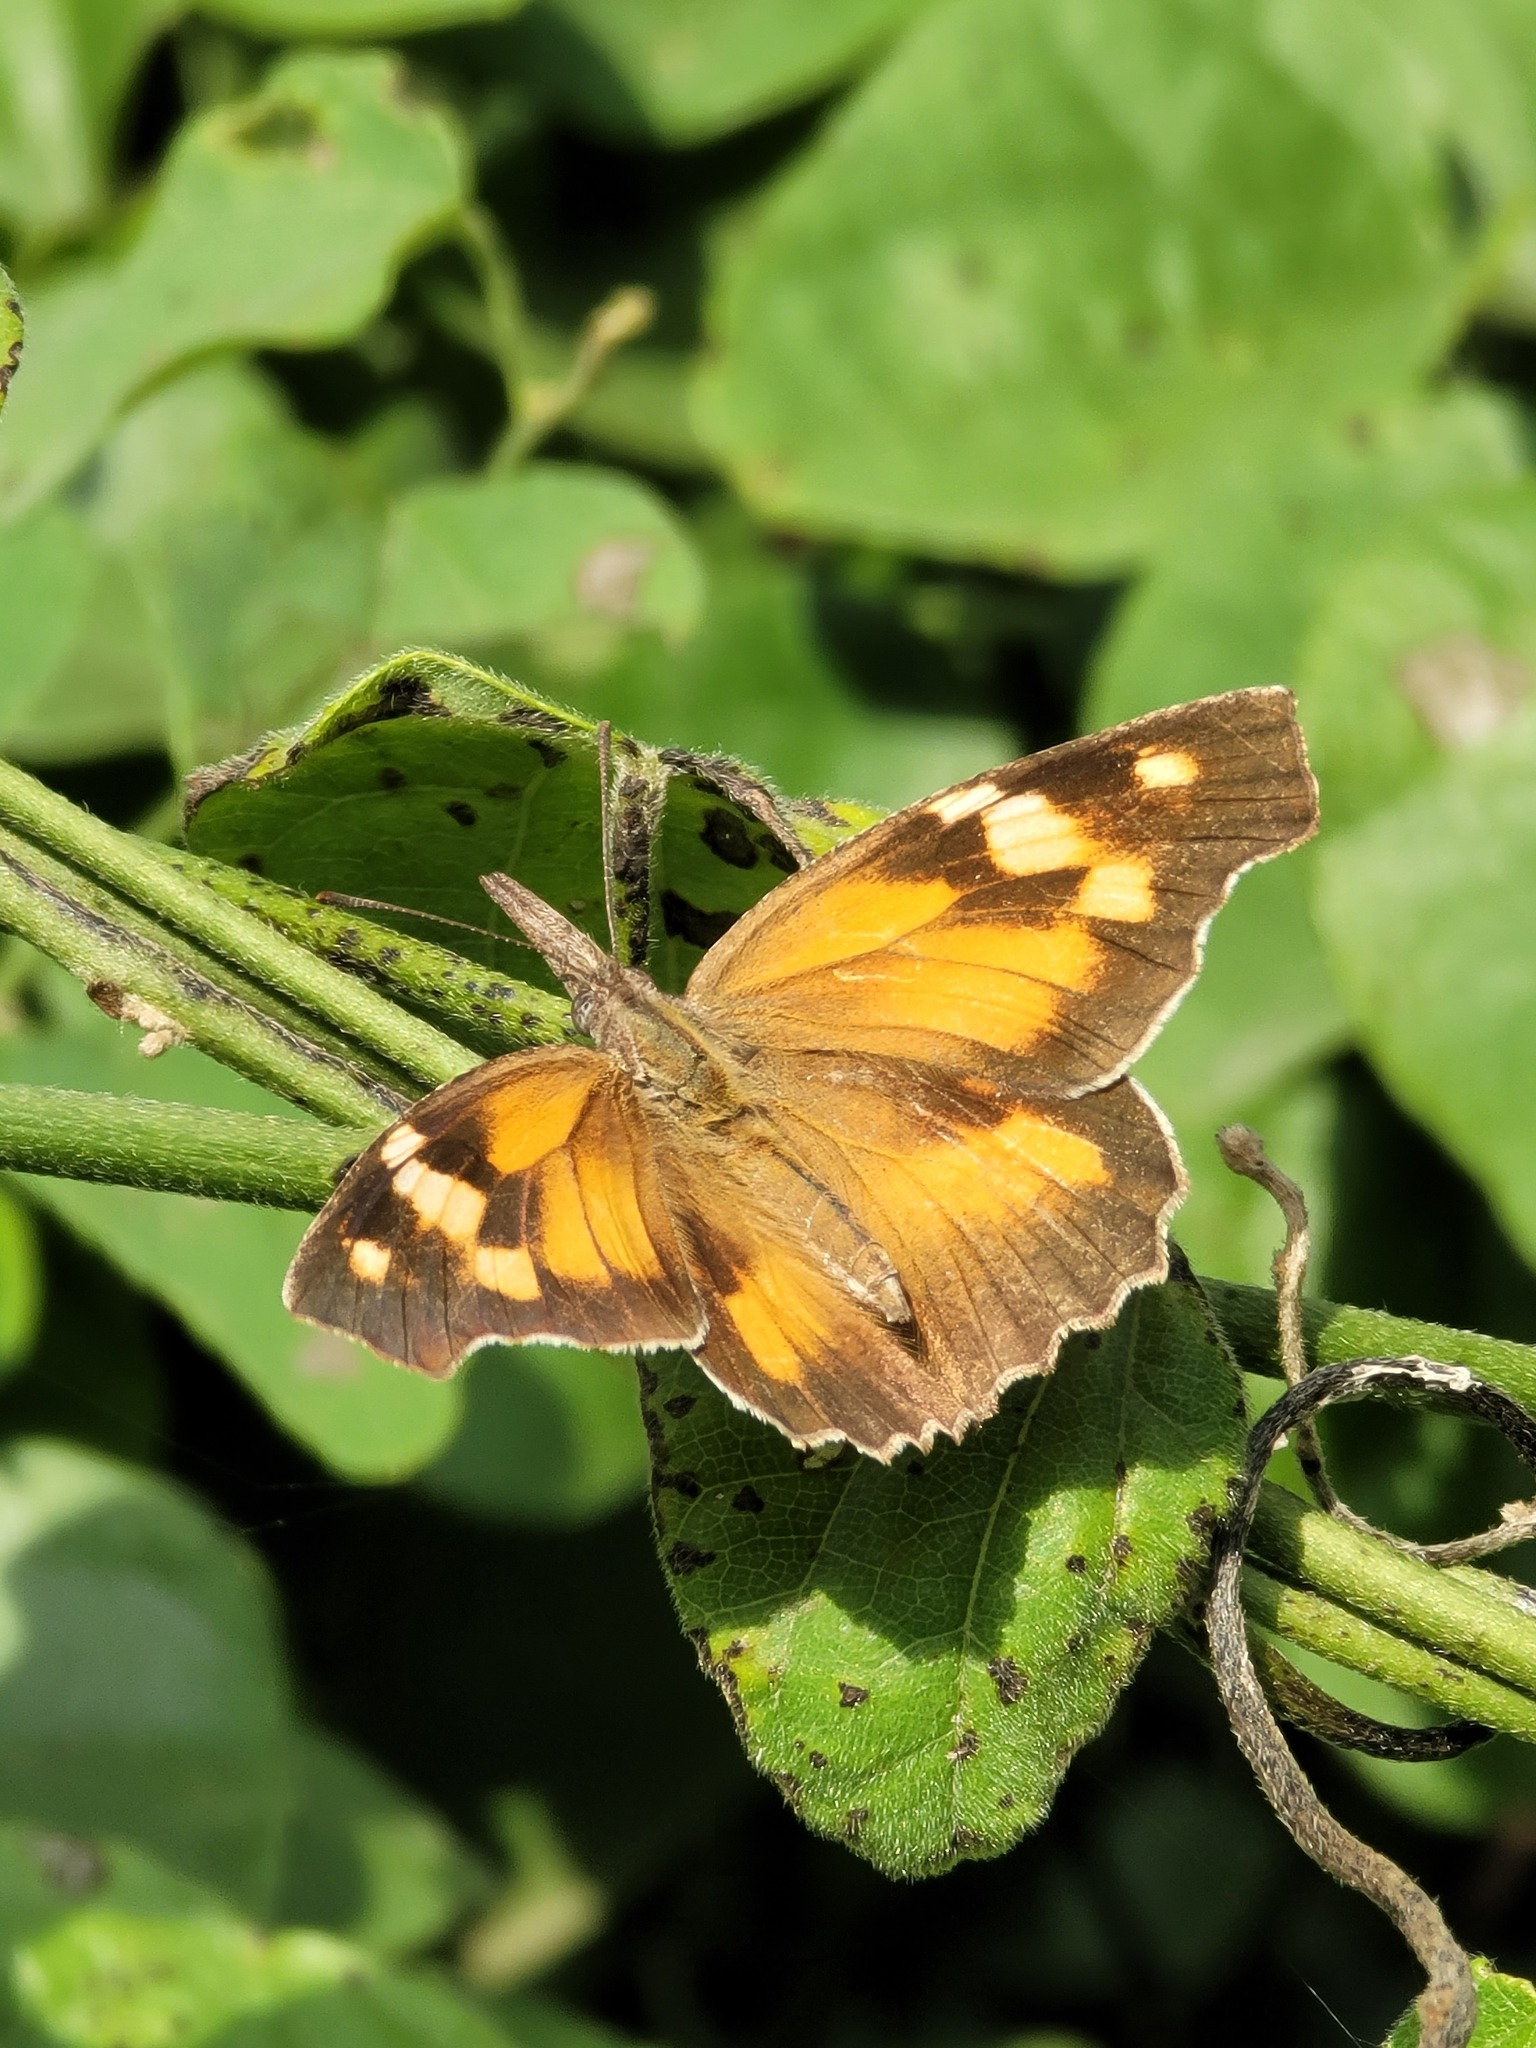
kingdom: Animalia
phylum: Arthropoda
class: Insecta
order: Lepidoptera
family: Nymphalidae
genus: Libytheana
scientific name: Libytheana carinenta
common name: American snout
